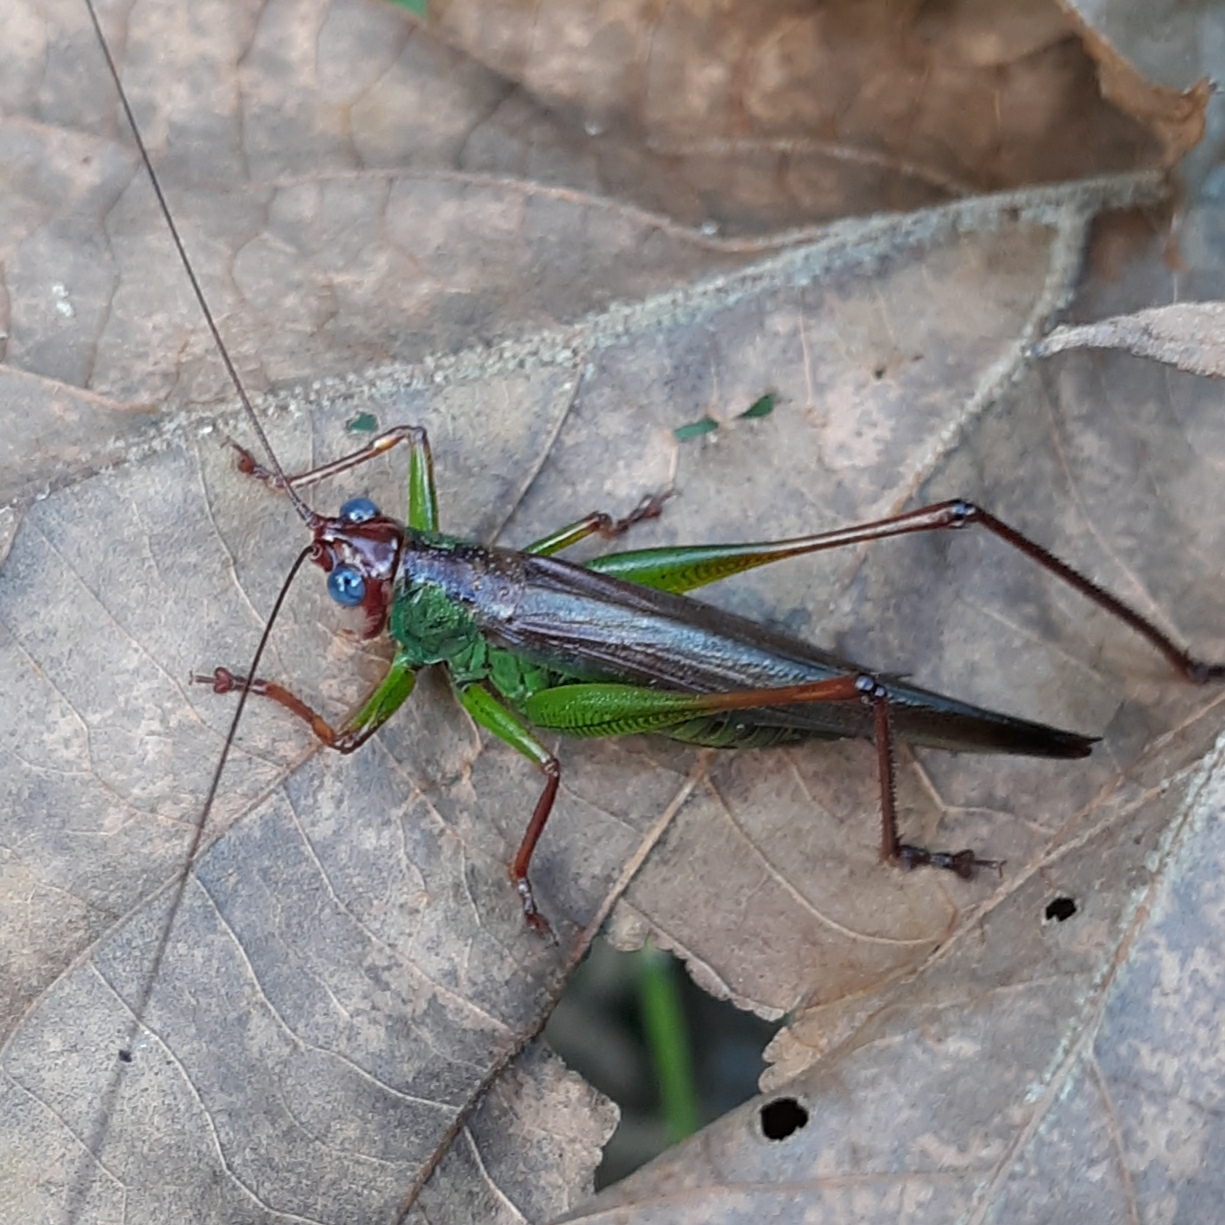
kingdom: Animalia
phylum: Arthropoda
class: Insecta
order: Orthoptera
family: Tettigoniidae
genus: Orchelimum
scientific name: Orchelimum pulchellum
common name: Handsome meadow katydid
